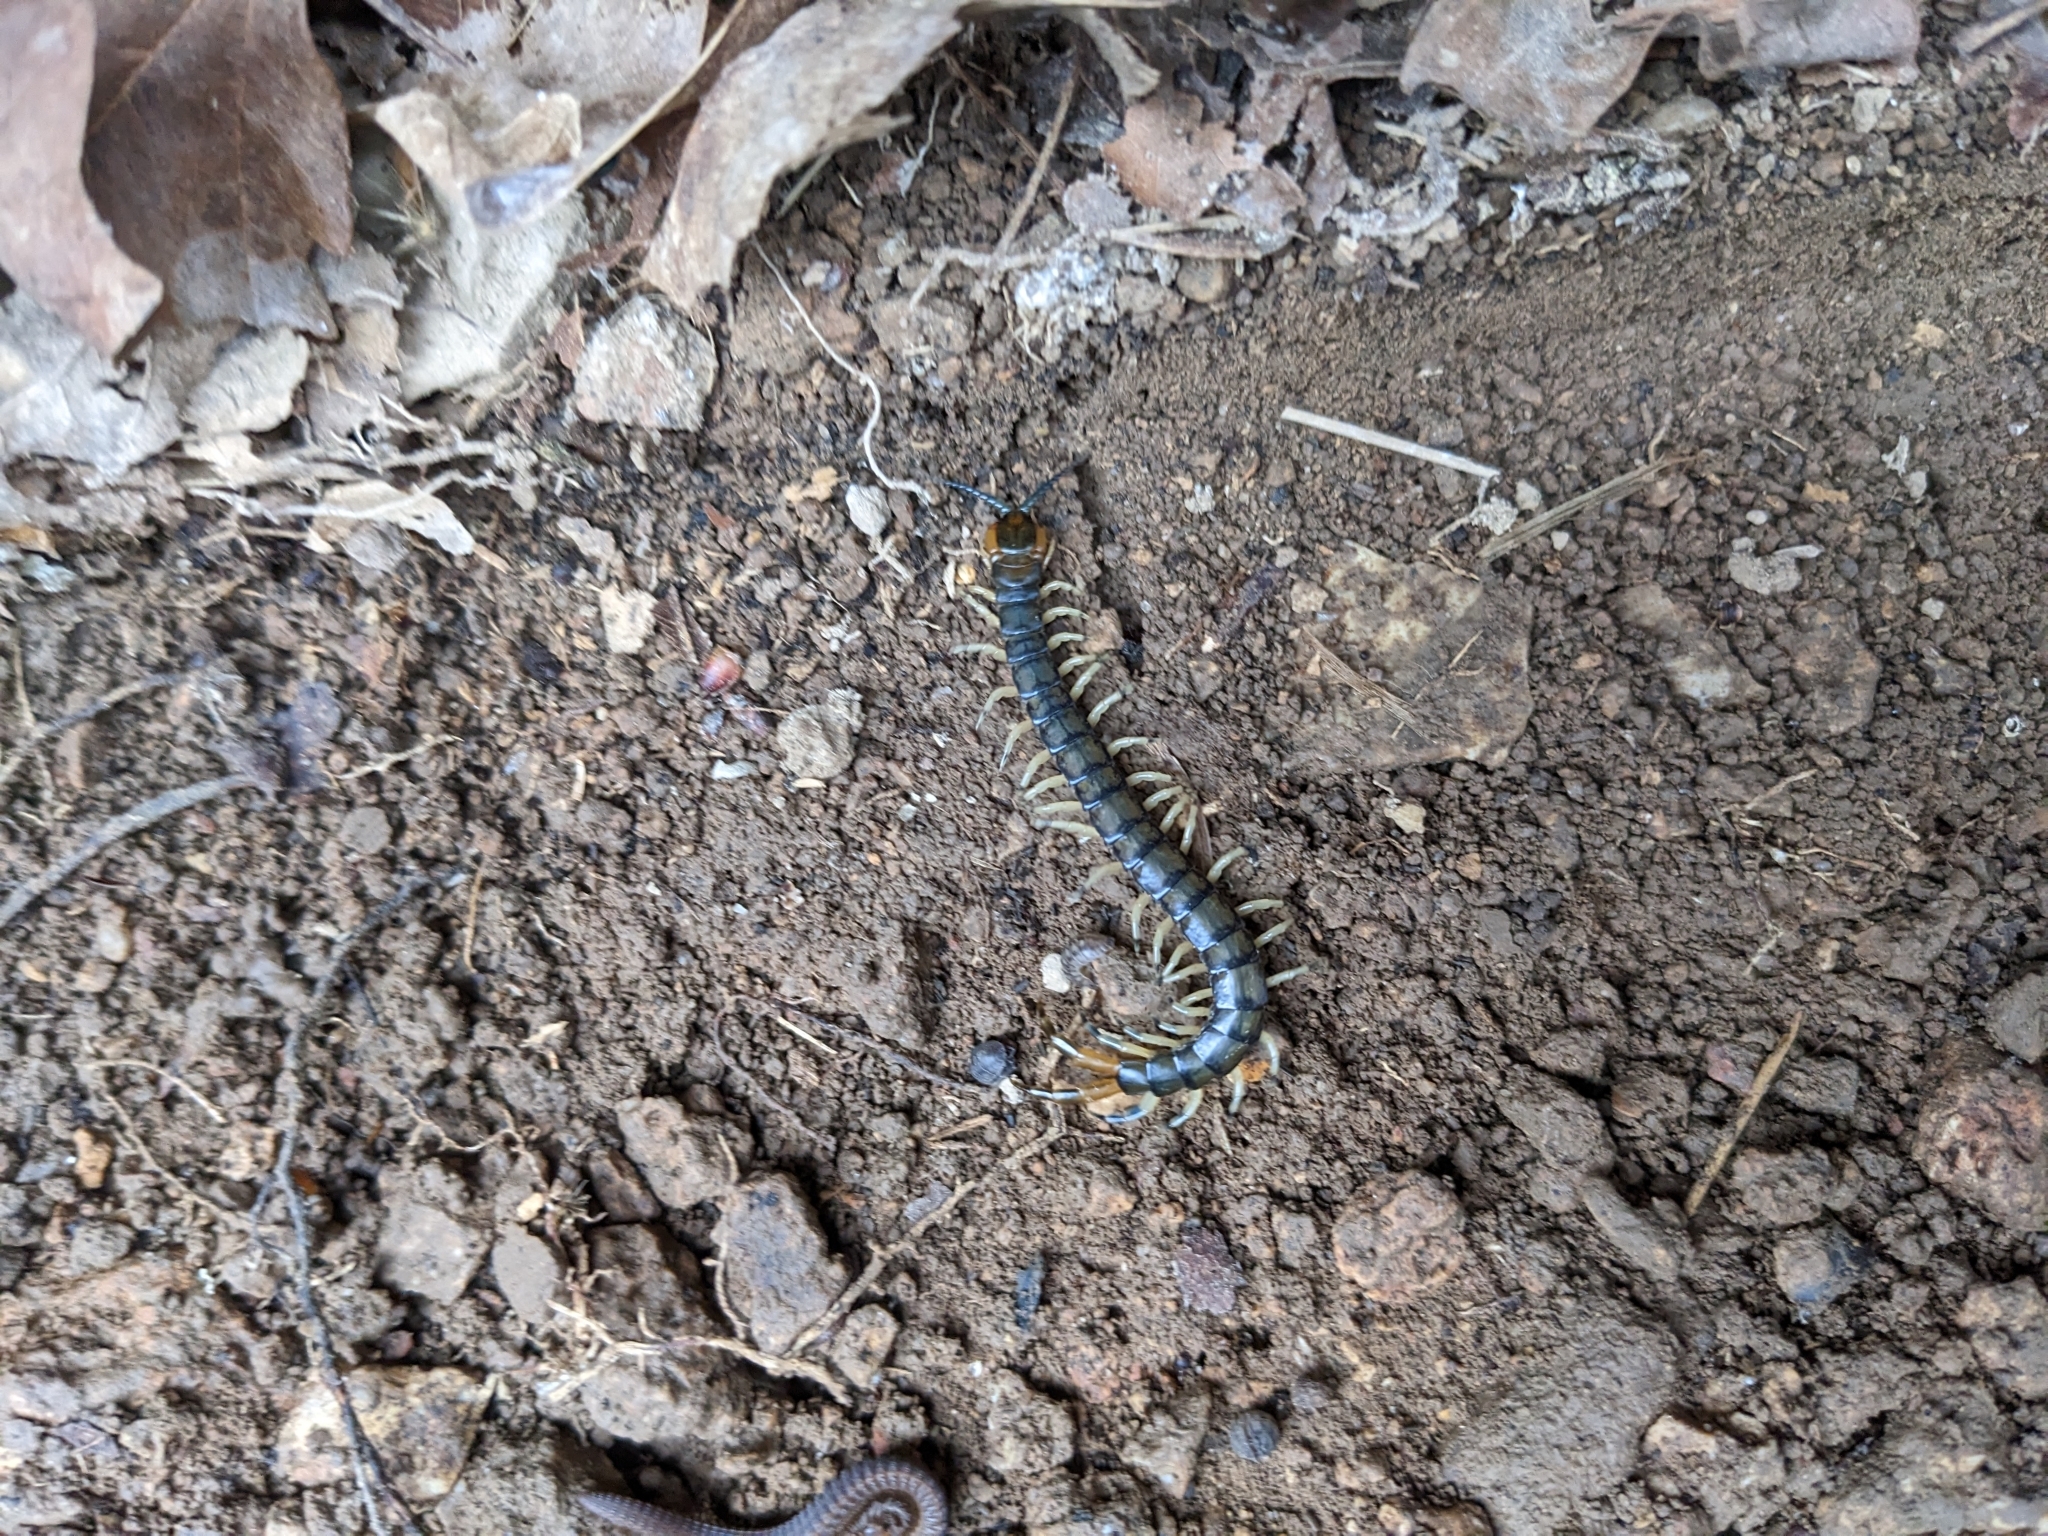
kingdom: Animalia
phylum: Arthropoda
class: Chilopoda
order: Scolopendromorpha
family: Scolopendridae
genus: Hemiscolopendra
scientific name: Hemiscolopendra marginata
